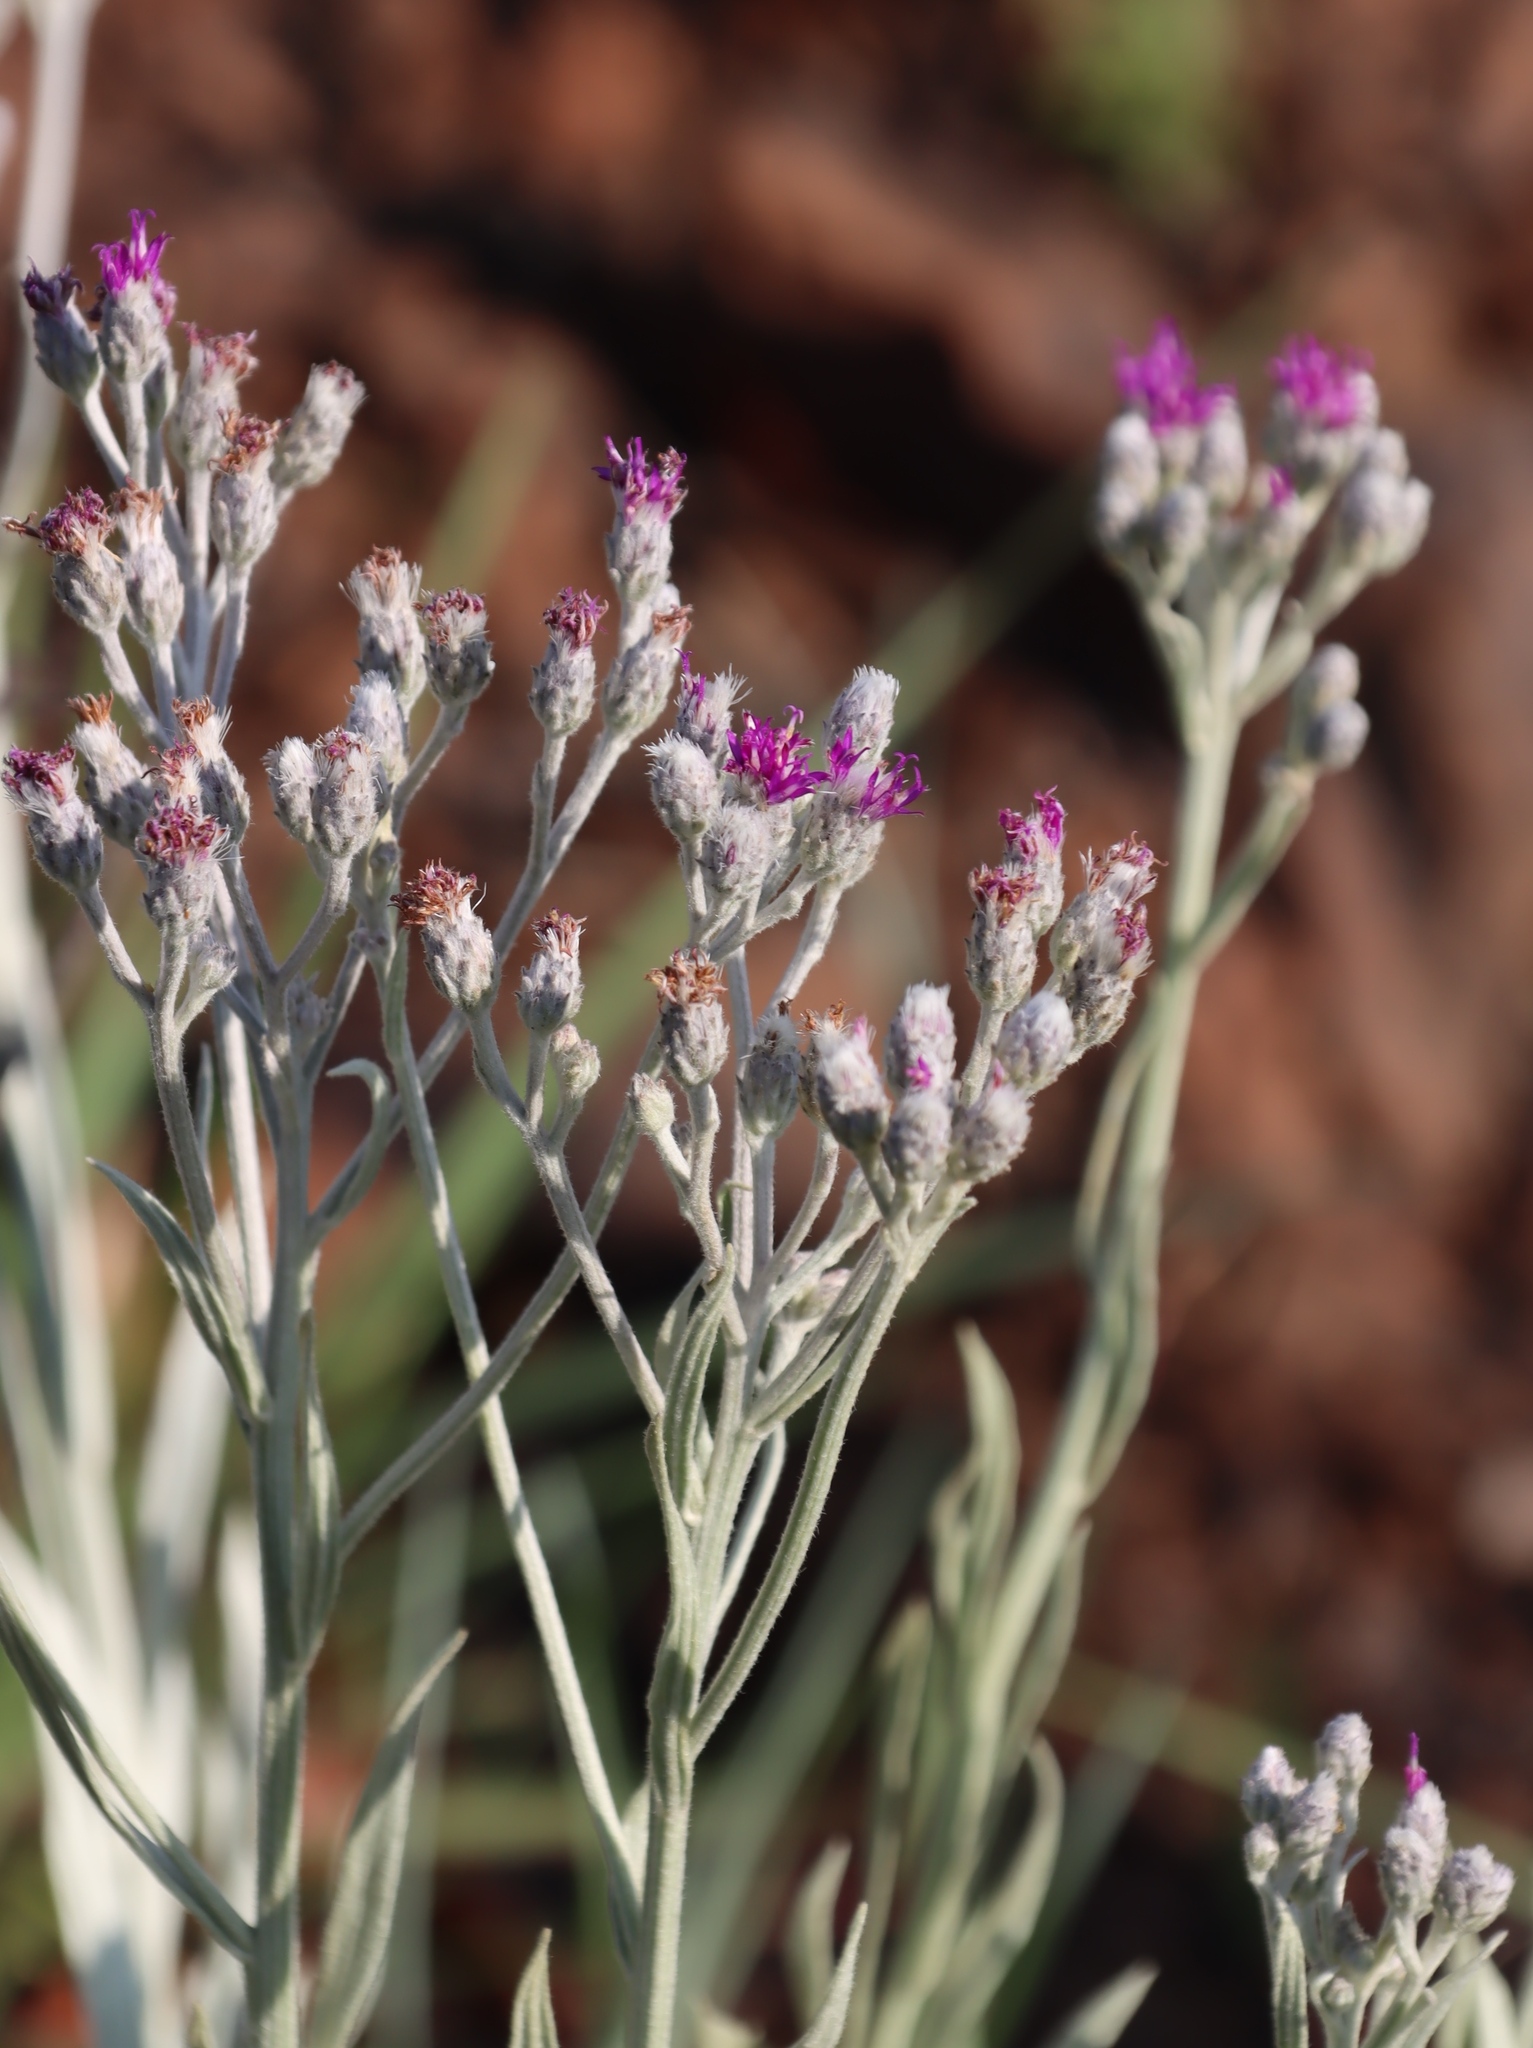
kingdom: Plantae
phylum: Tracheophyta
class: Magnoliopsida
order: Asterales
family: Asteraceae
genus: Hilliardiella
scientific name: Hilliardiella aristata
